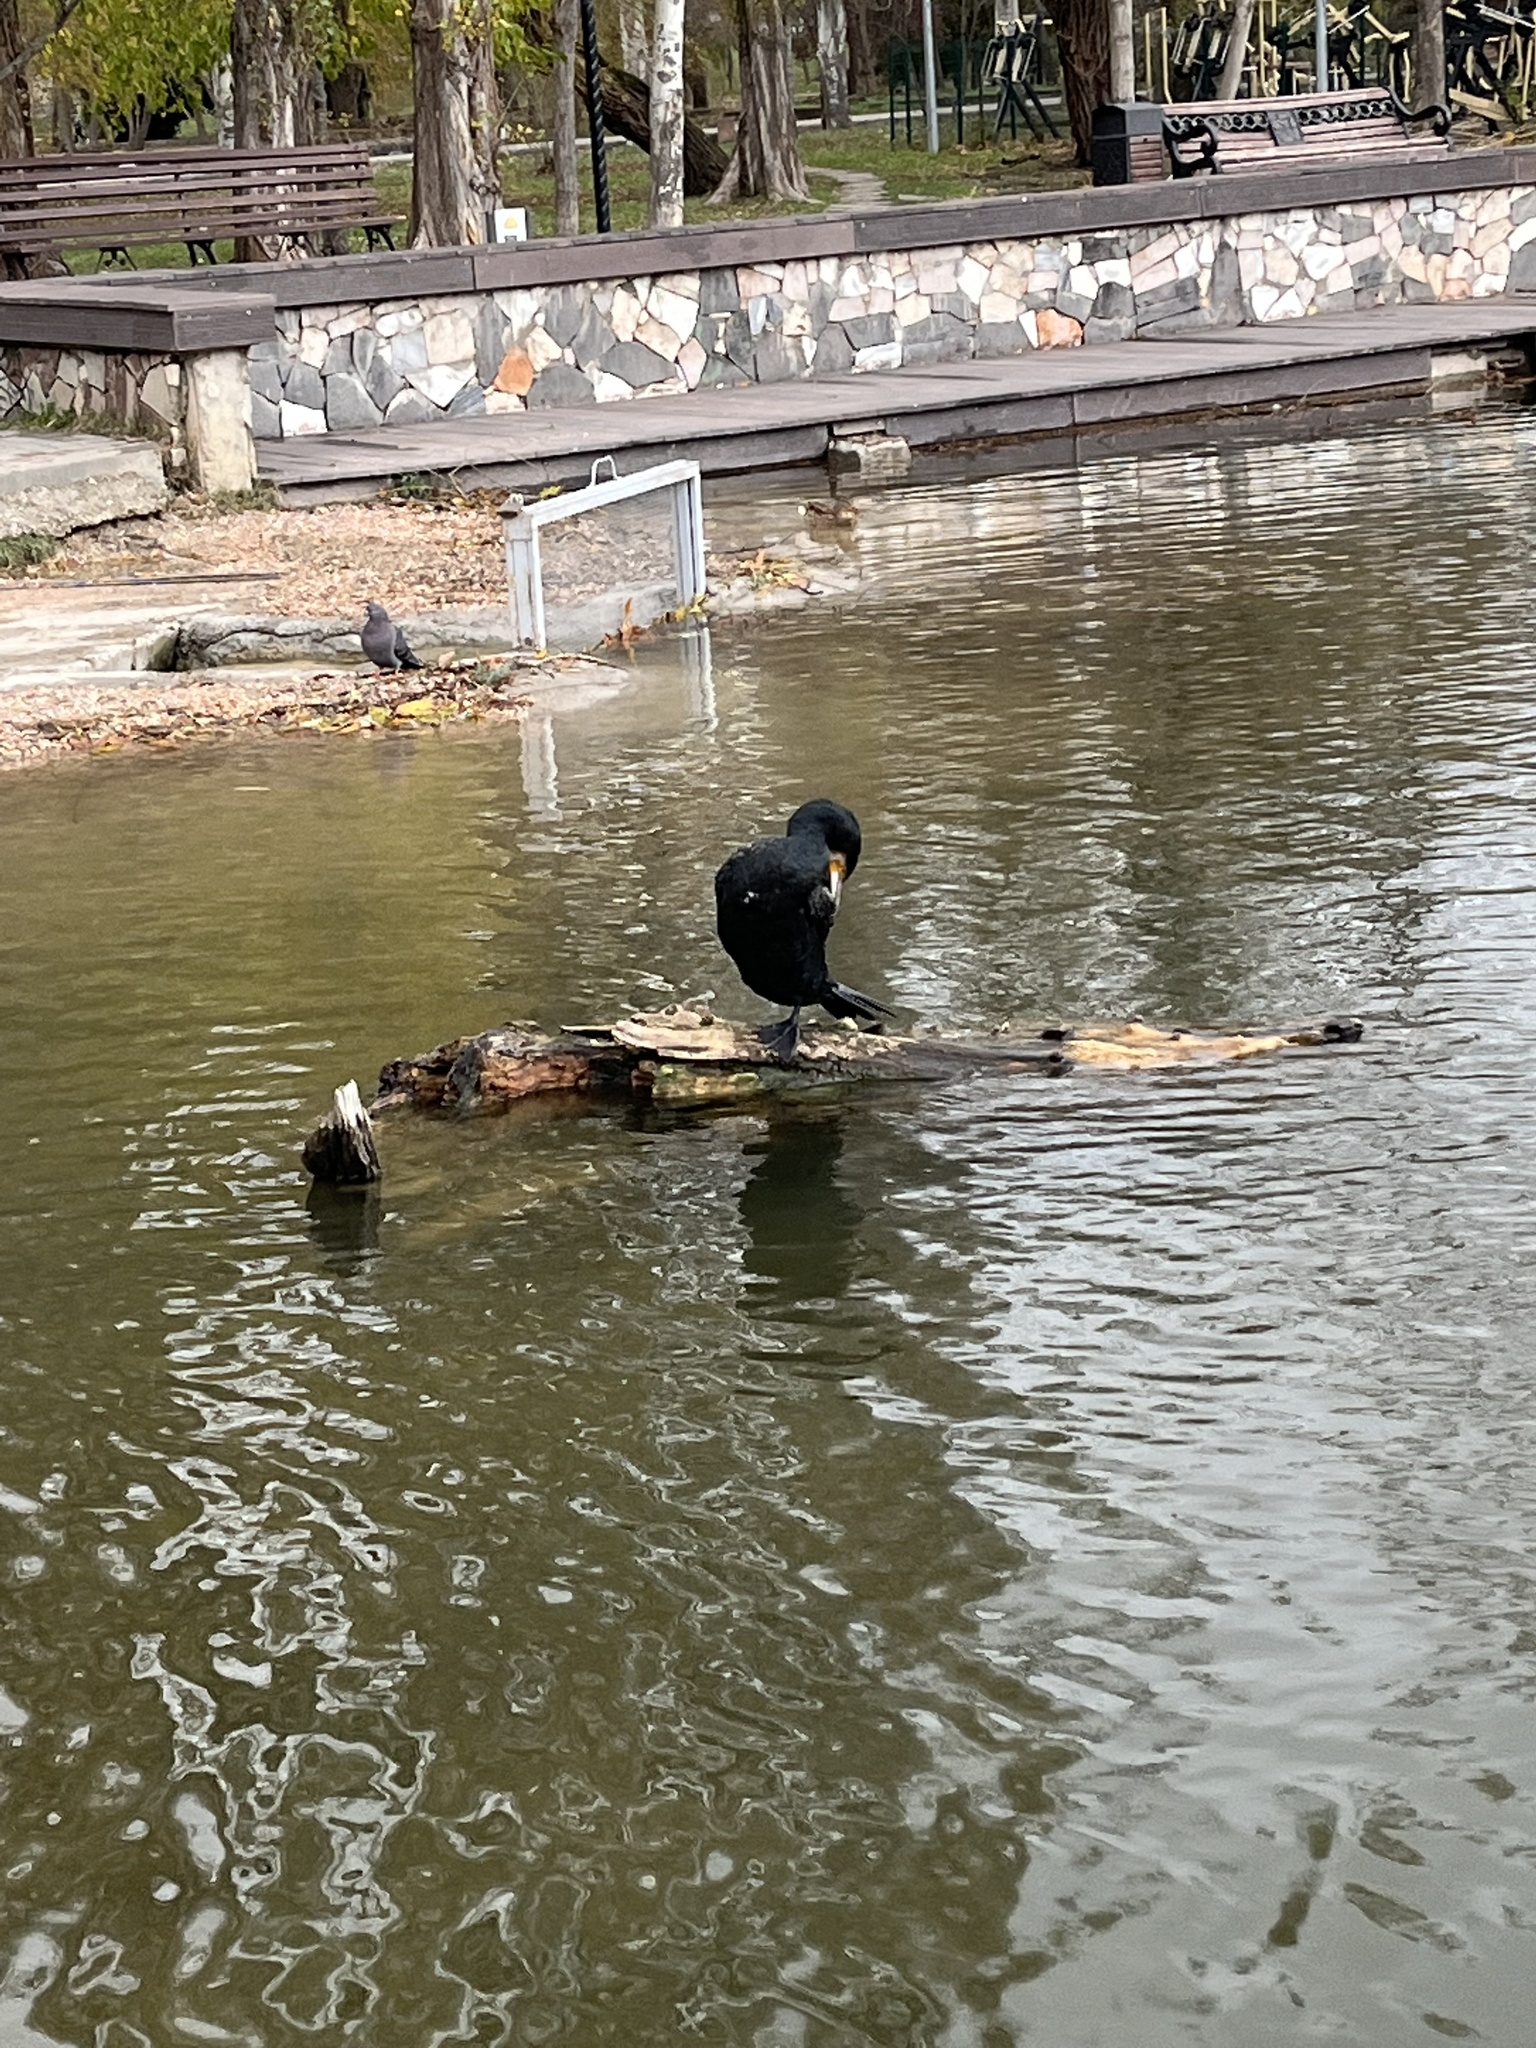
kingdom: Animalia
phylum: Chordata
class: Aves
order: Suliformes
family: Phalacrocoracidae
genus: Phalacrocorax
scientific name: Phalacrocorax carbo
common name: Great cormorant
